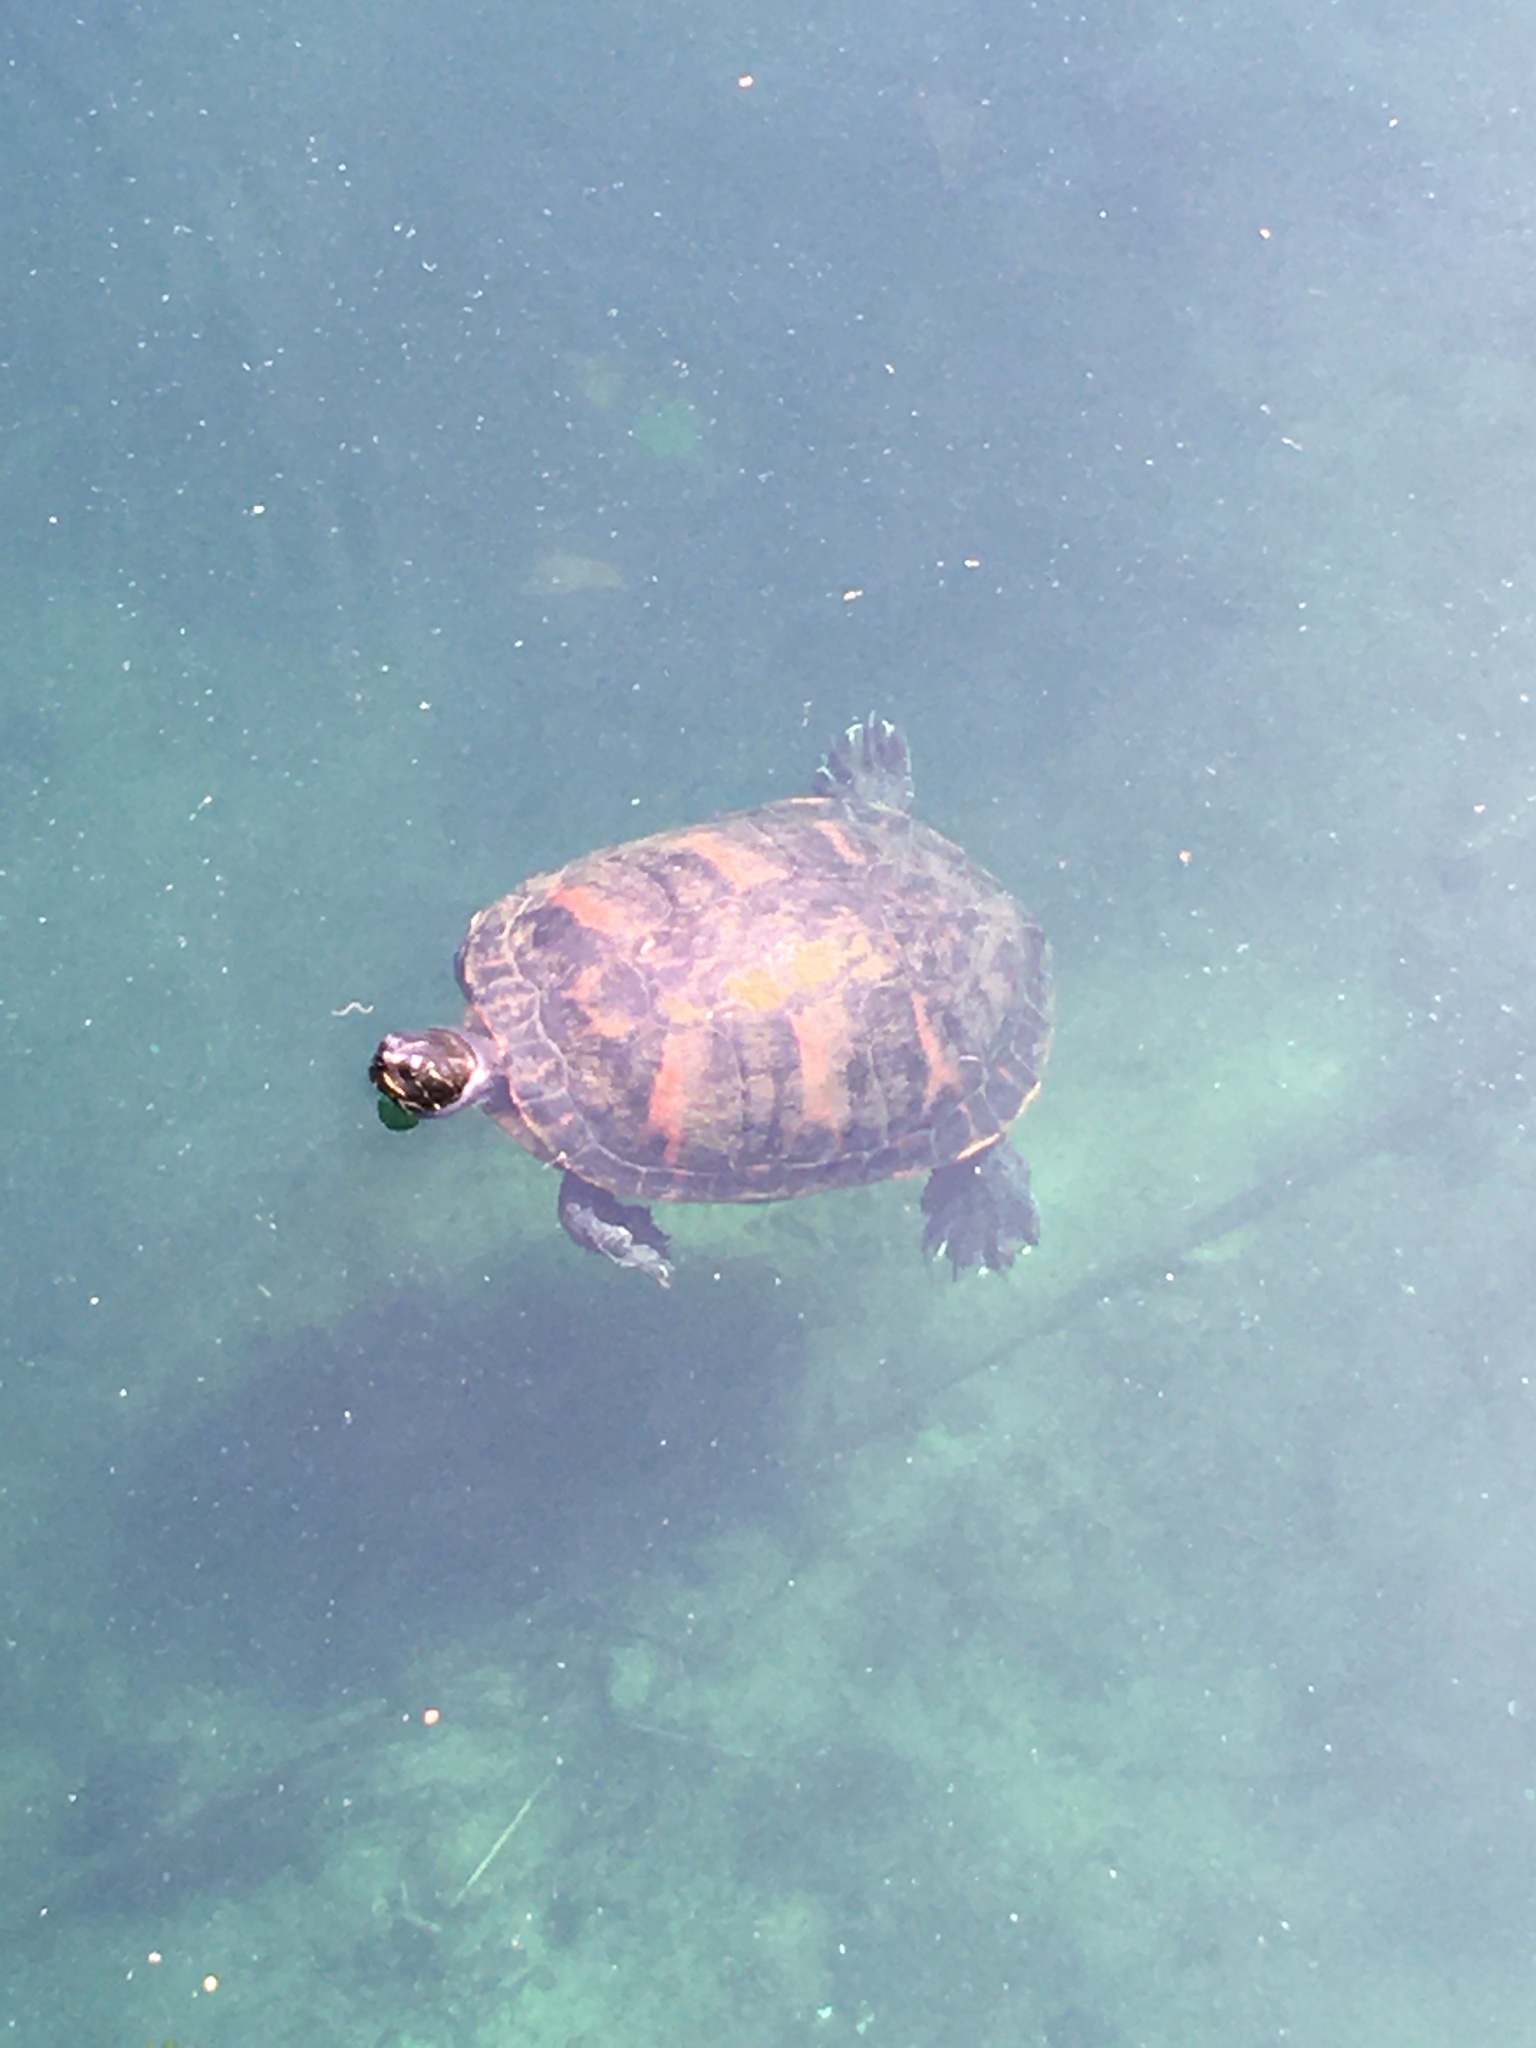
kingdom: Animalia
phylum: Chordata
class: Testudines
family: Emydidae
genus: Pseudemys
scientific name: Pseudemys nelsoni
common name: Florida red-bellied turtle
